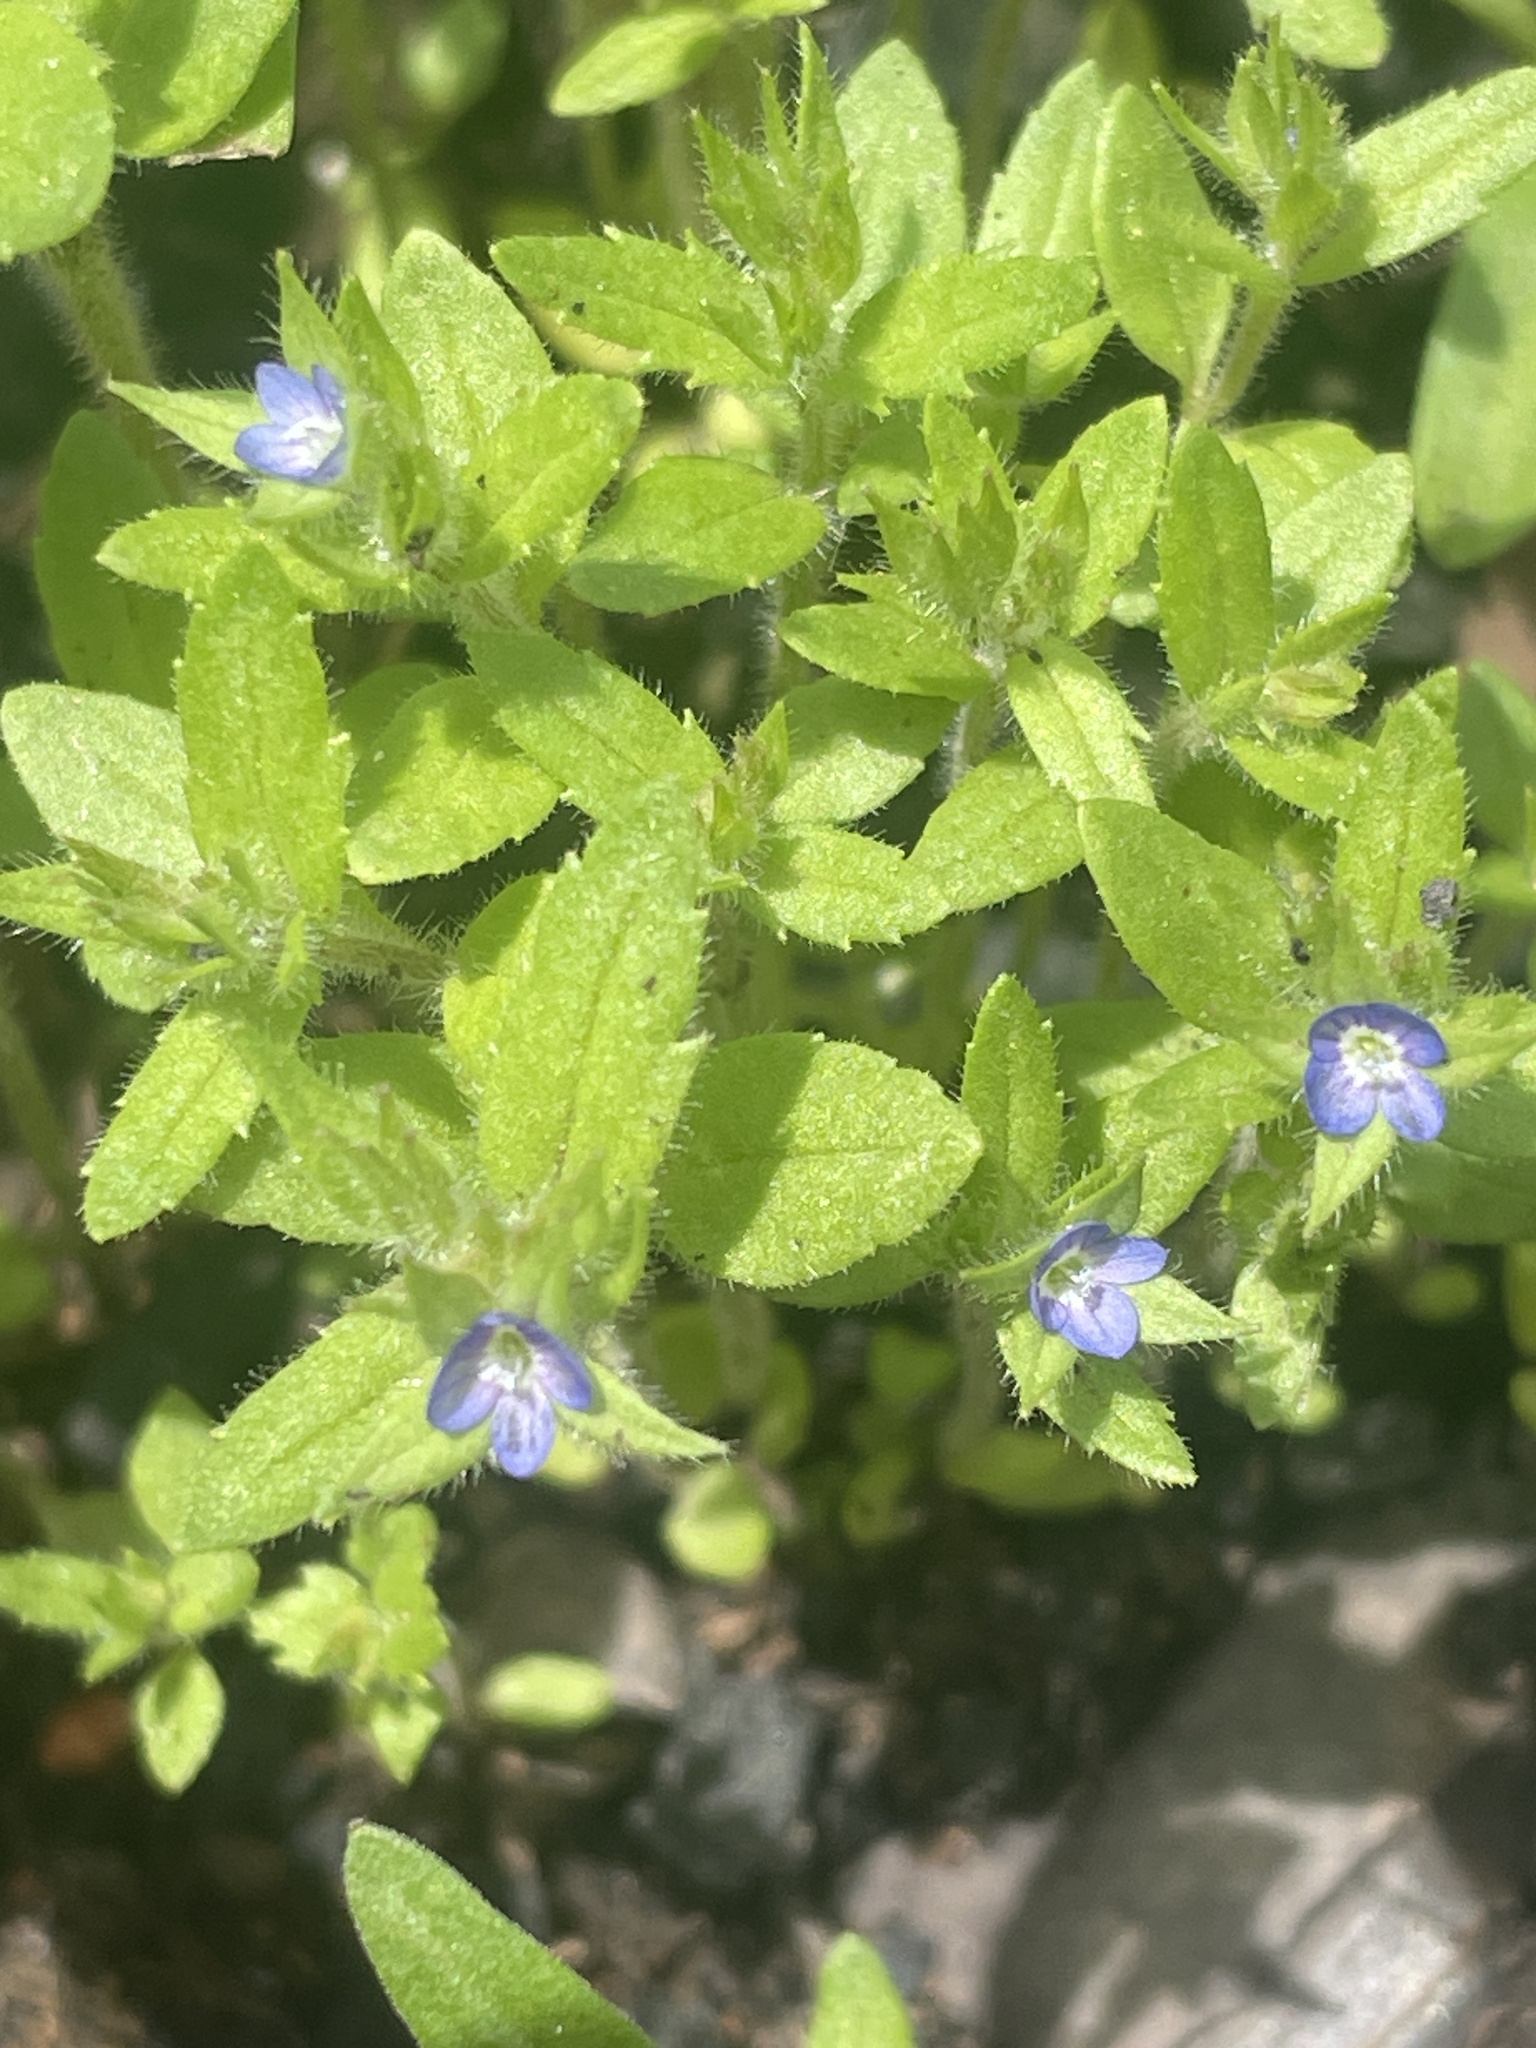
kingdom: Plantae
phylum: Tracheophyta
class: Magnoliopsida
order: Lamiales
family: Plantaginaceae
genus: Veronica
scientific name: Veronica biloba
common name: Twolobe speedwell
